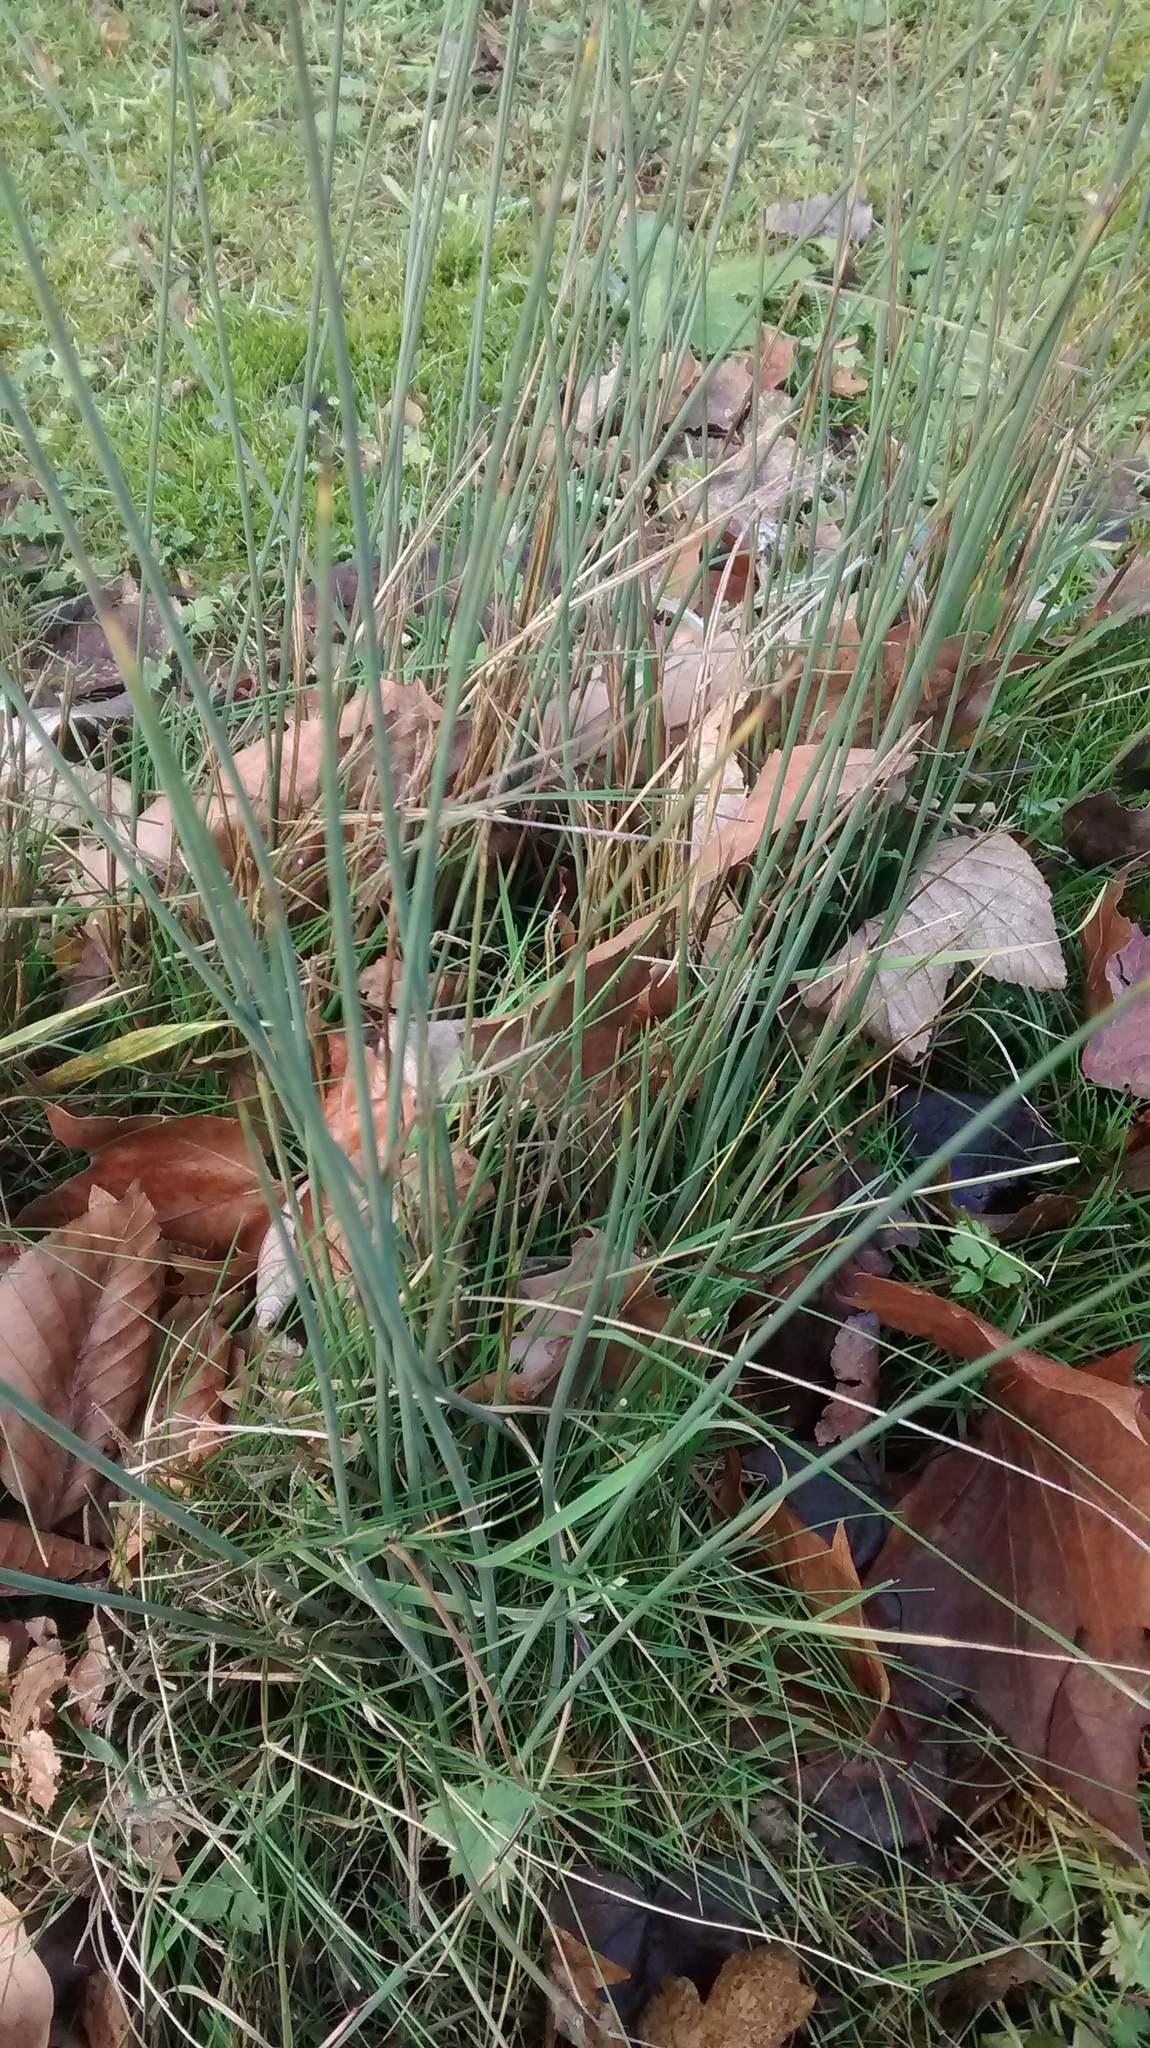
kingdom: Plantae
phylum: Tracheophyta
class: Liliopsida
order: Poales
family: Juncaceae
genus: Juncus
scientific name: Juncus inflexus
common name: Hard rush
